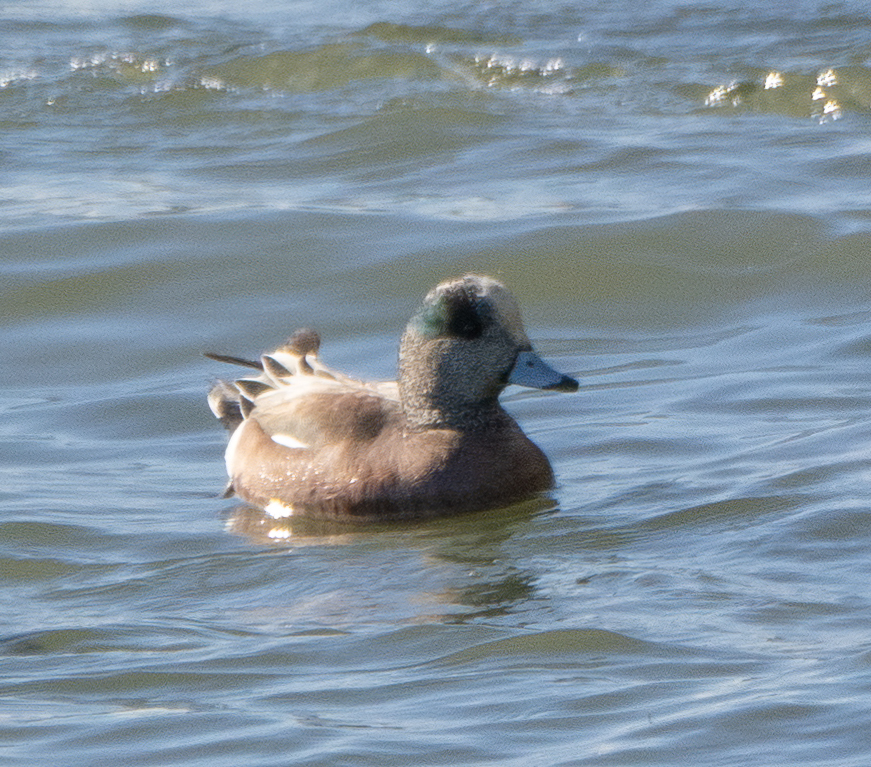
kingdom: Animalia
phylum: Chordata
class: Aves
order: Anseriformes
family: Anatidae
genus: Mareca
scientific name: Mareca americana
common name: American wigeon
